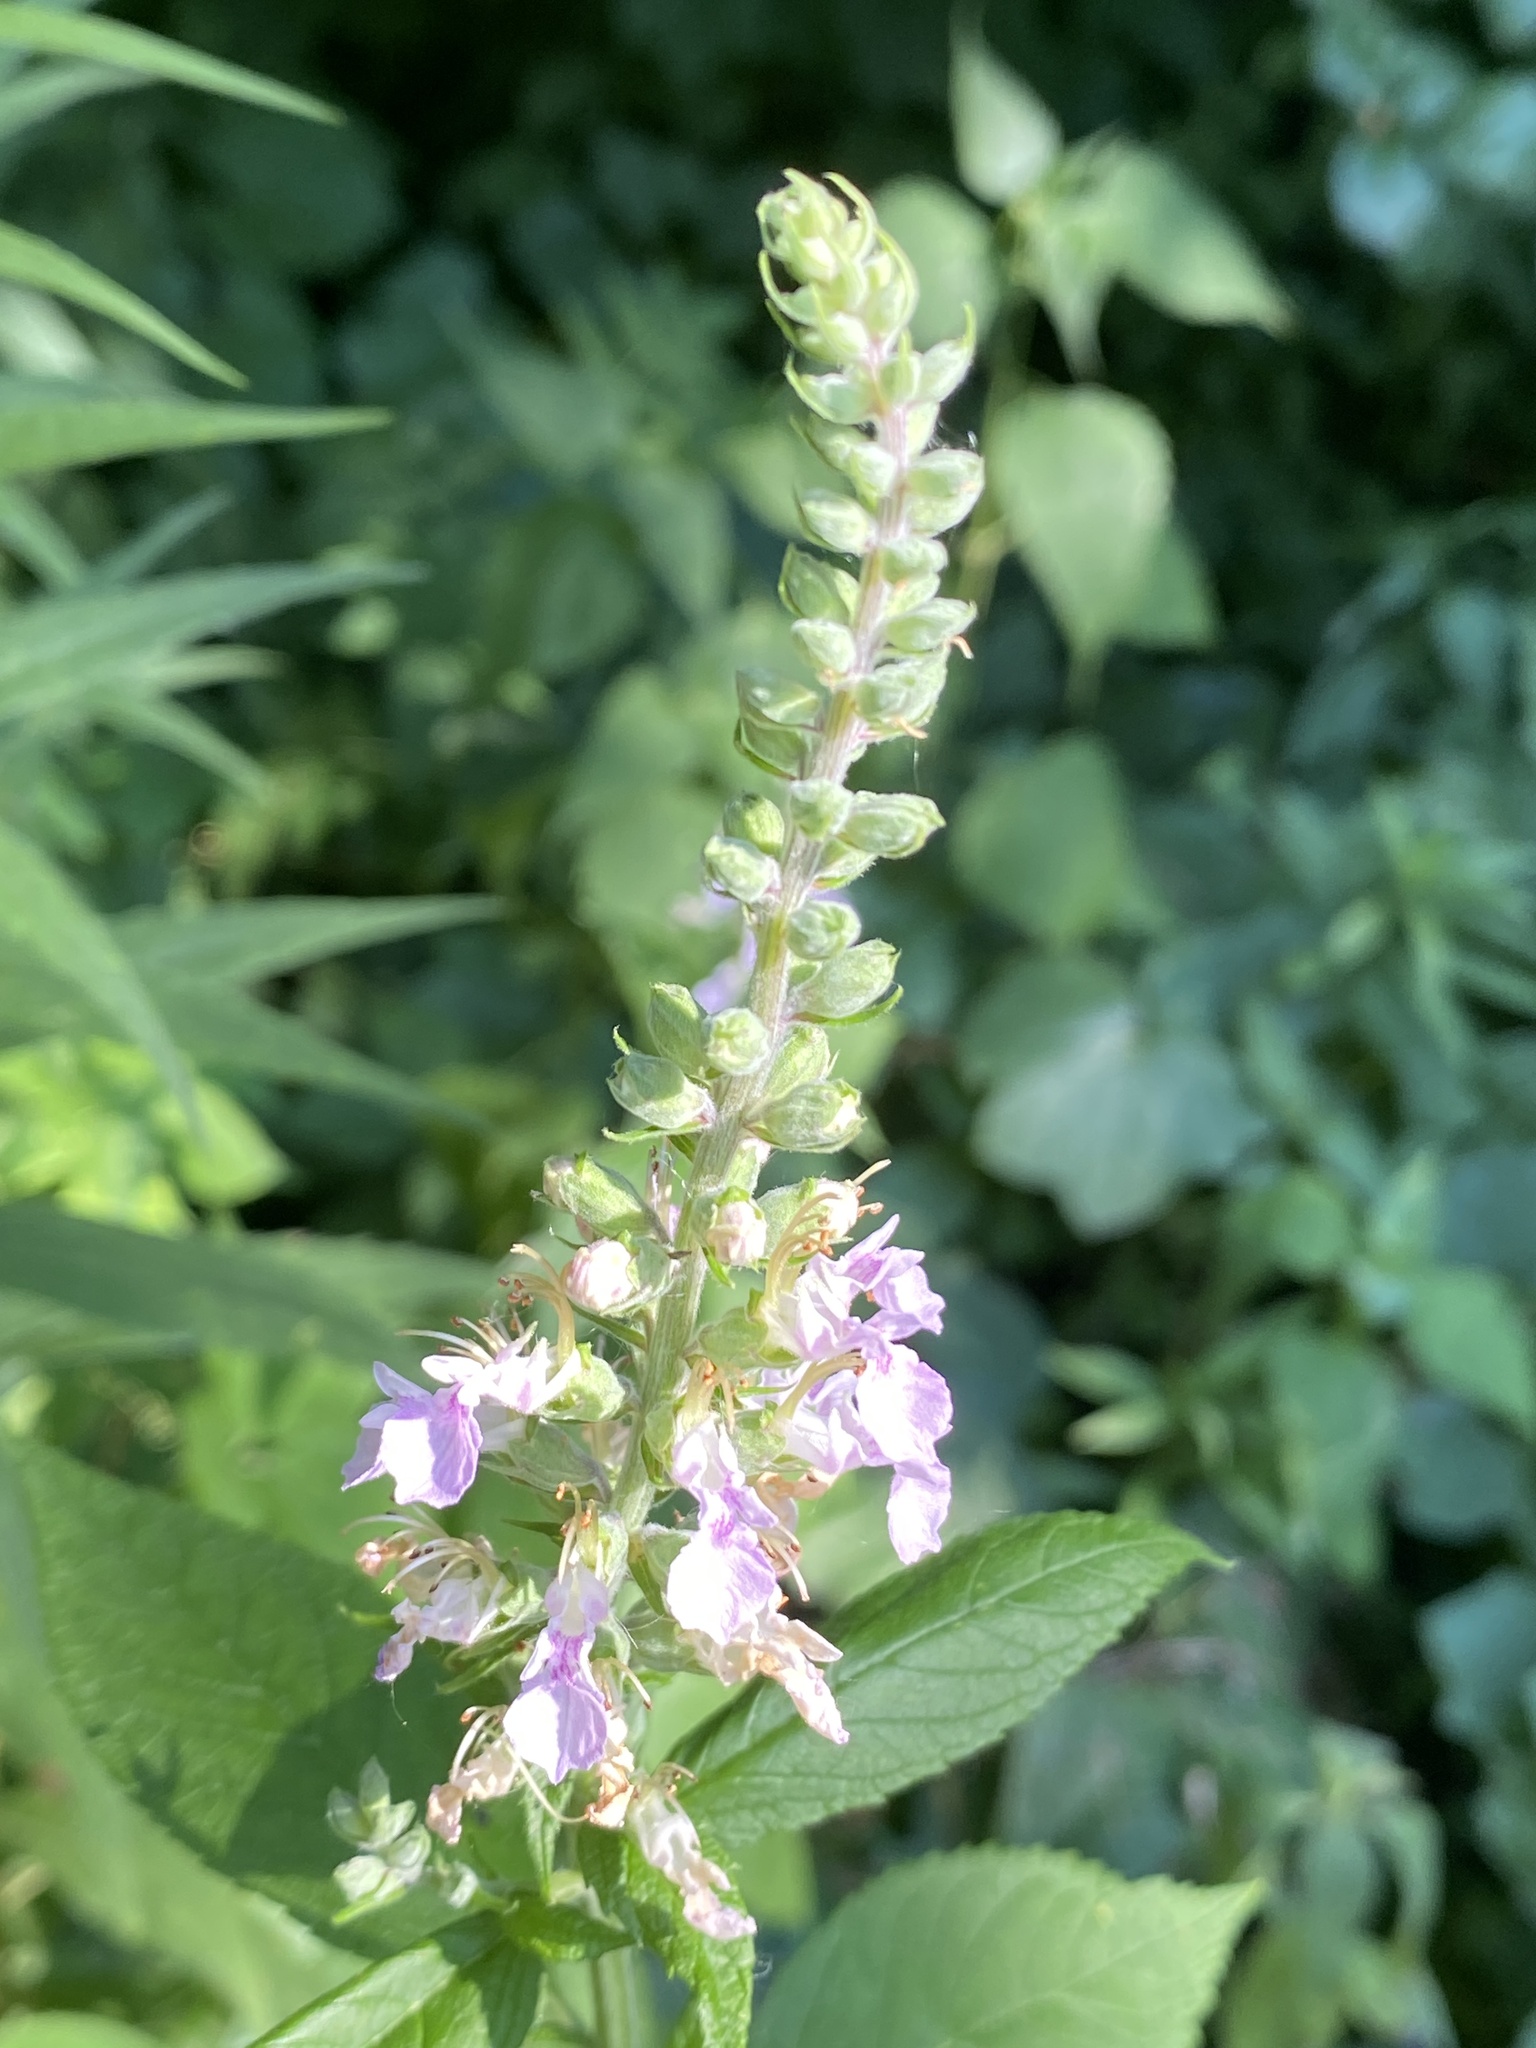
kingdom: Plantae
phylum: Tracheophyta
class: Magnoliopsida
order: Lamiales
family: Lamiaceae
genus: Teucrium
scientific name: Teucrium canadense
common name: American germander
